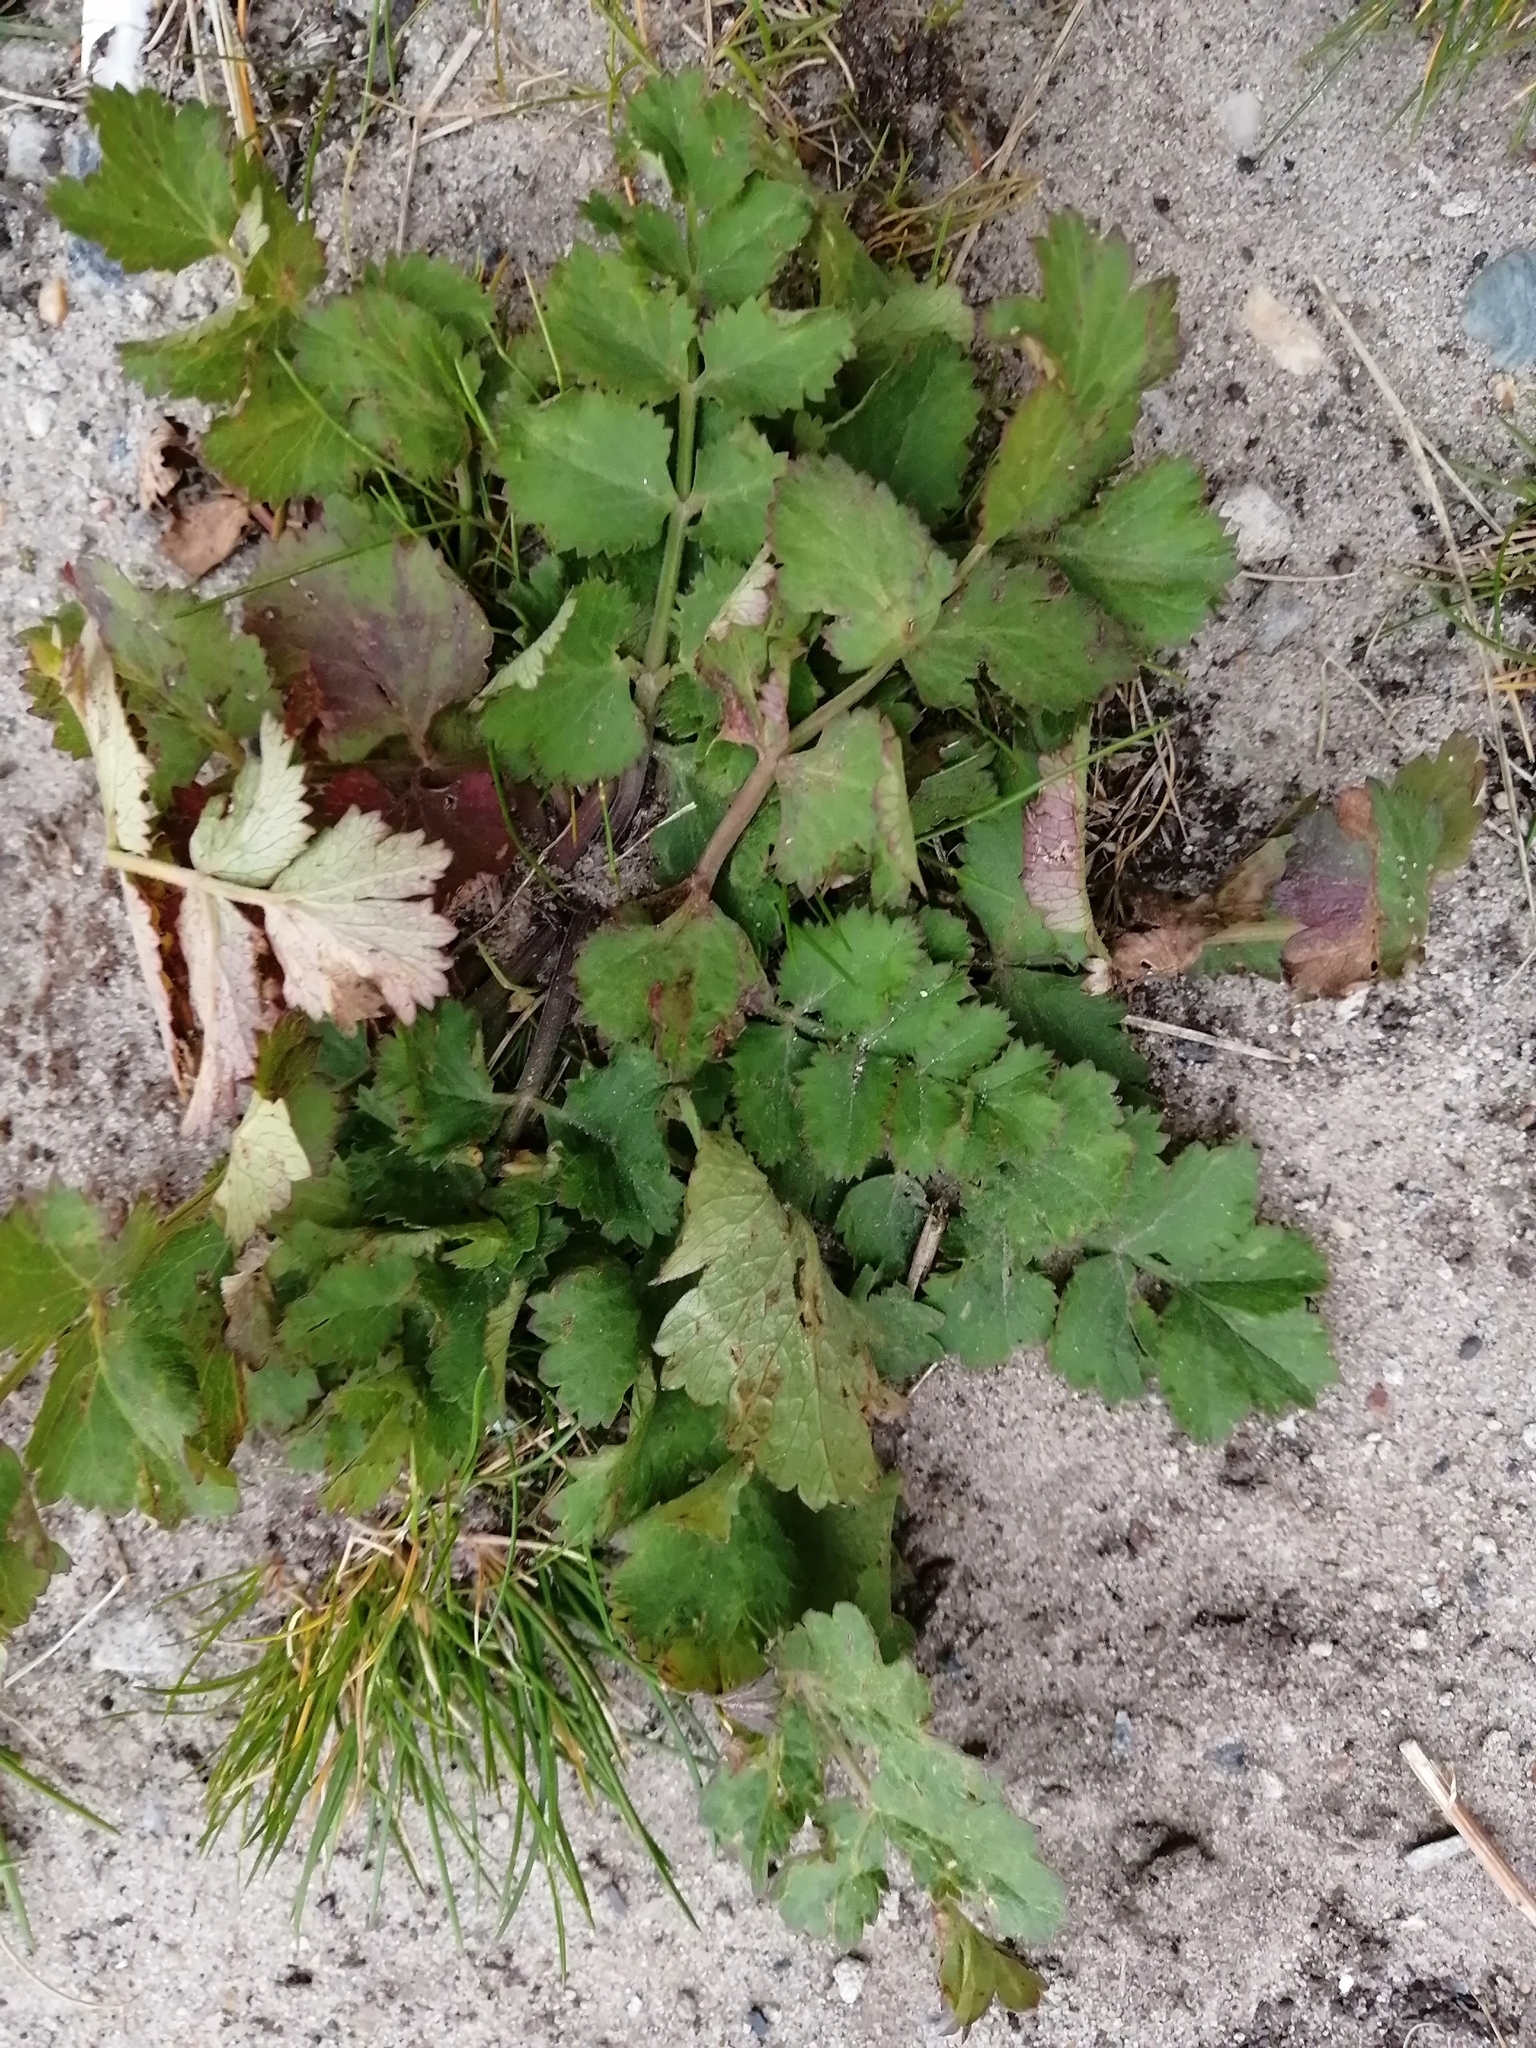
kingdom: Plantae
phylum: Tracheophyta
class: Magnoliopsida
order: Apiales
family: Apiaceae
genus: Pimpinella
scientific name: Pimpinella saxifraga
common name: Burnet-saxifrage
